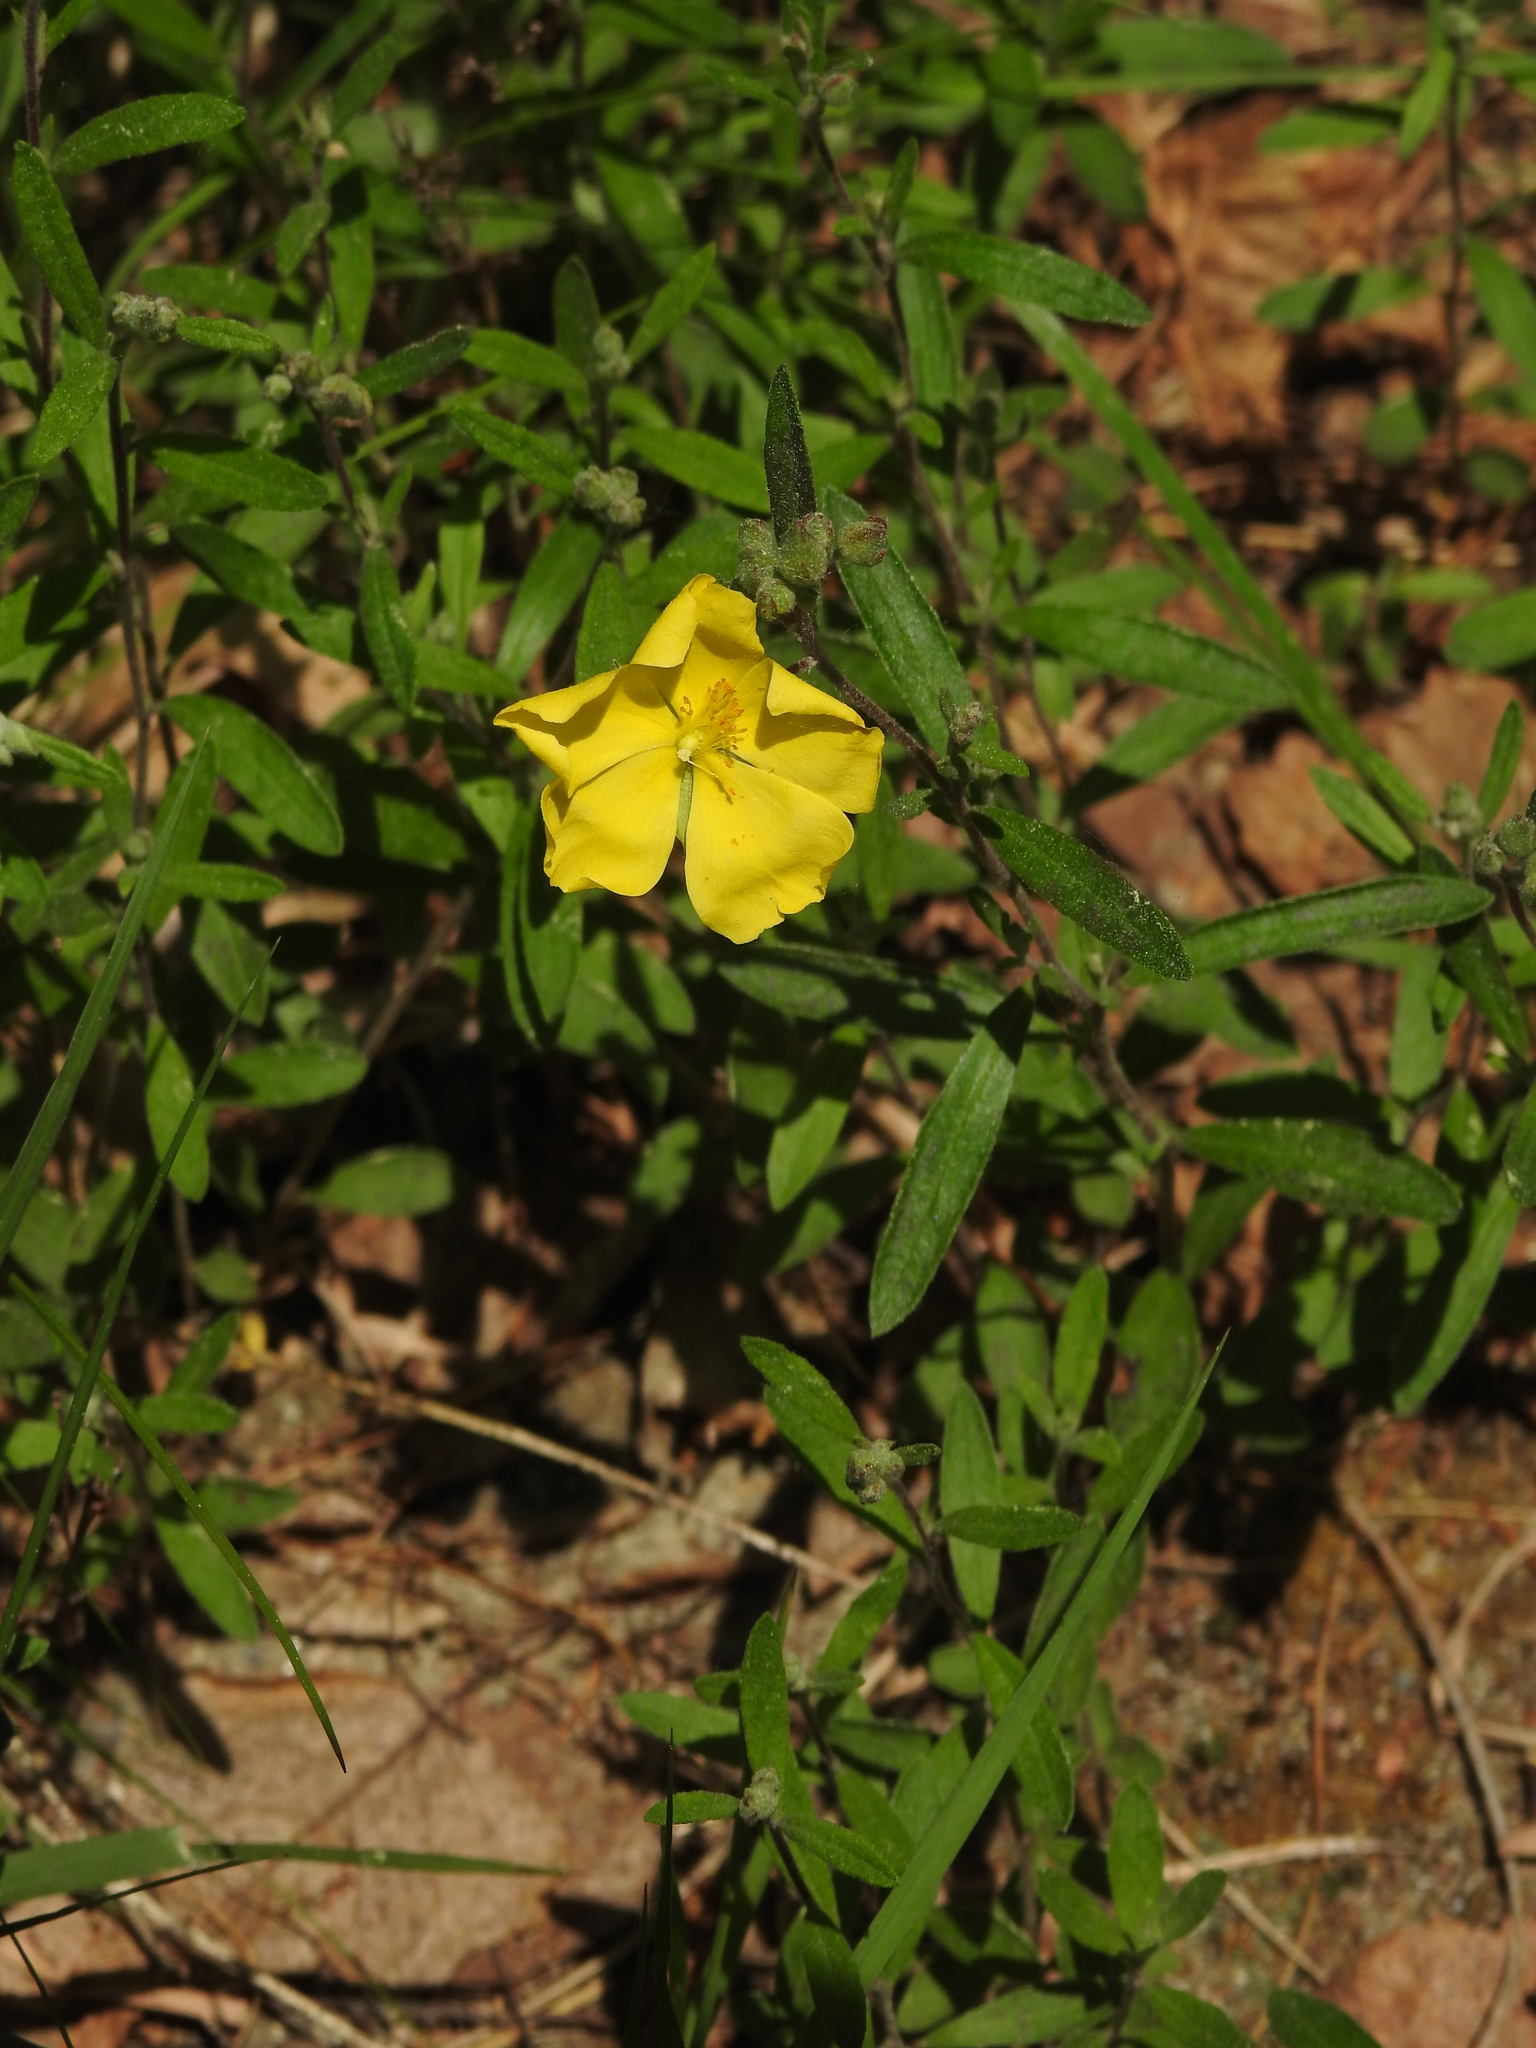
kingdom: Plantae
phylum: Tracheophyta
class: Magnoliopsida
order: Malvales
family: Cistaceae
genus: Crocanthemum
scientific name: Crocanthemum canadense
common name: Canada frostweed
